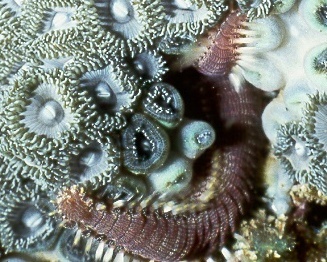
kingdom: Animalia
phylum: Cnidaria
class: Anthozoa
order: Zoantharia
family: Zoanthidae
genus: Zoanthus
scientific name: Zoanthus kuroshio
